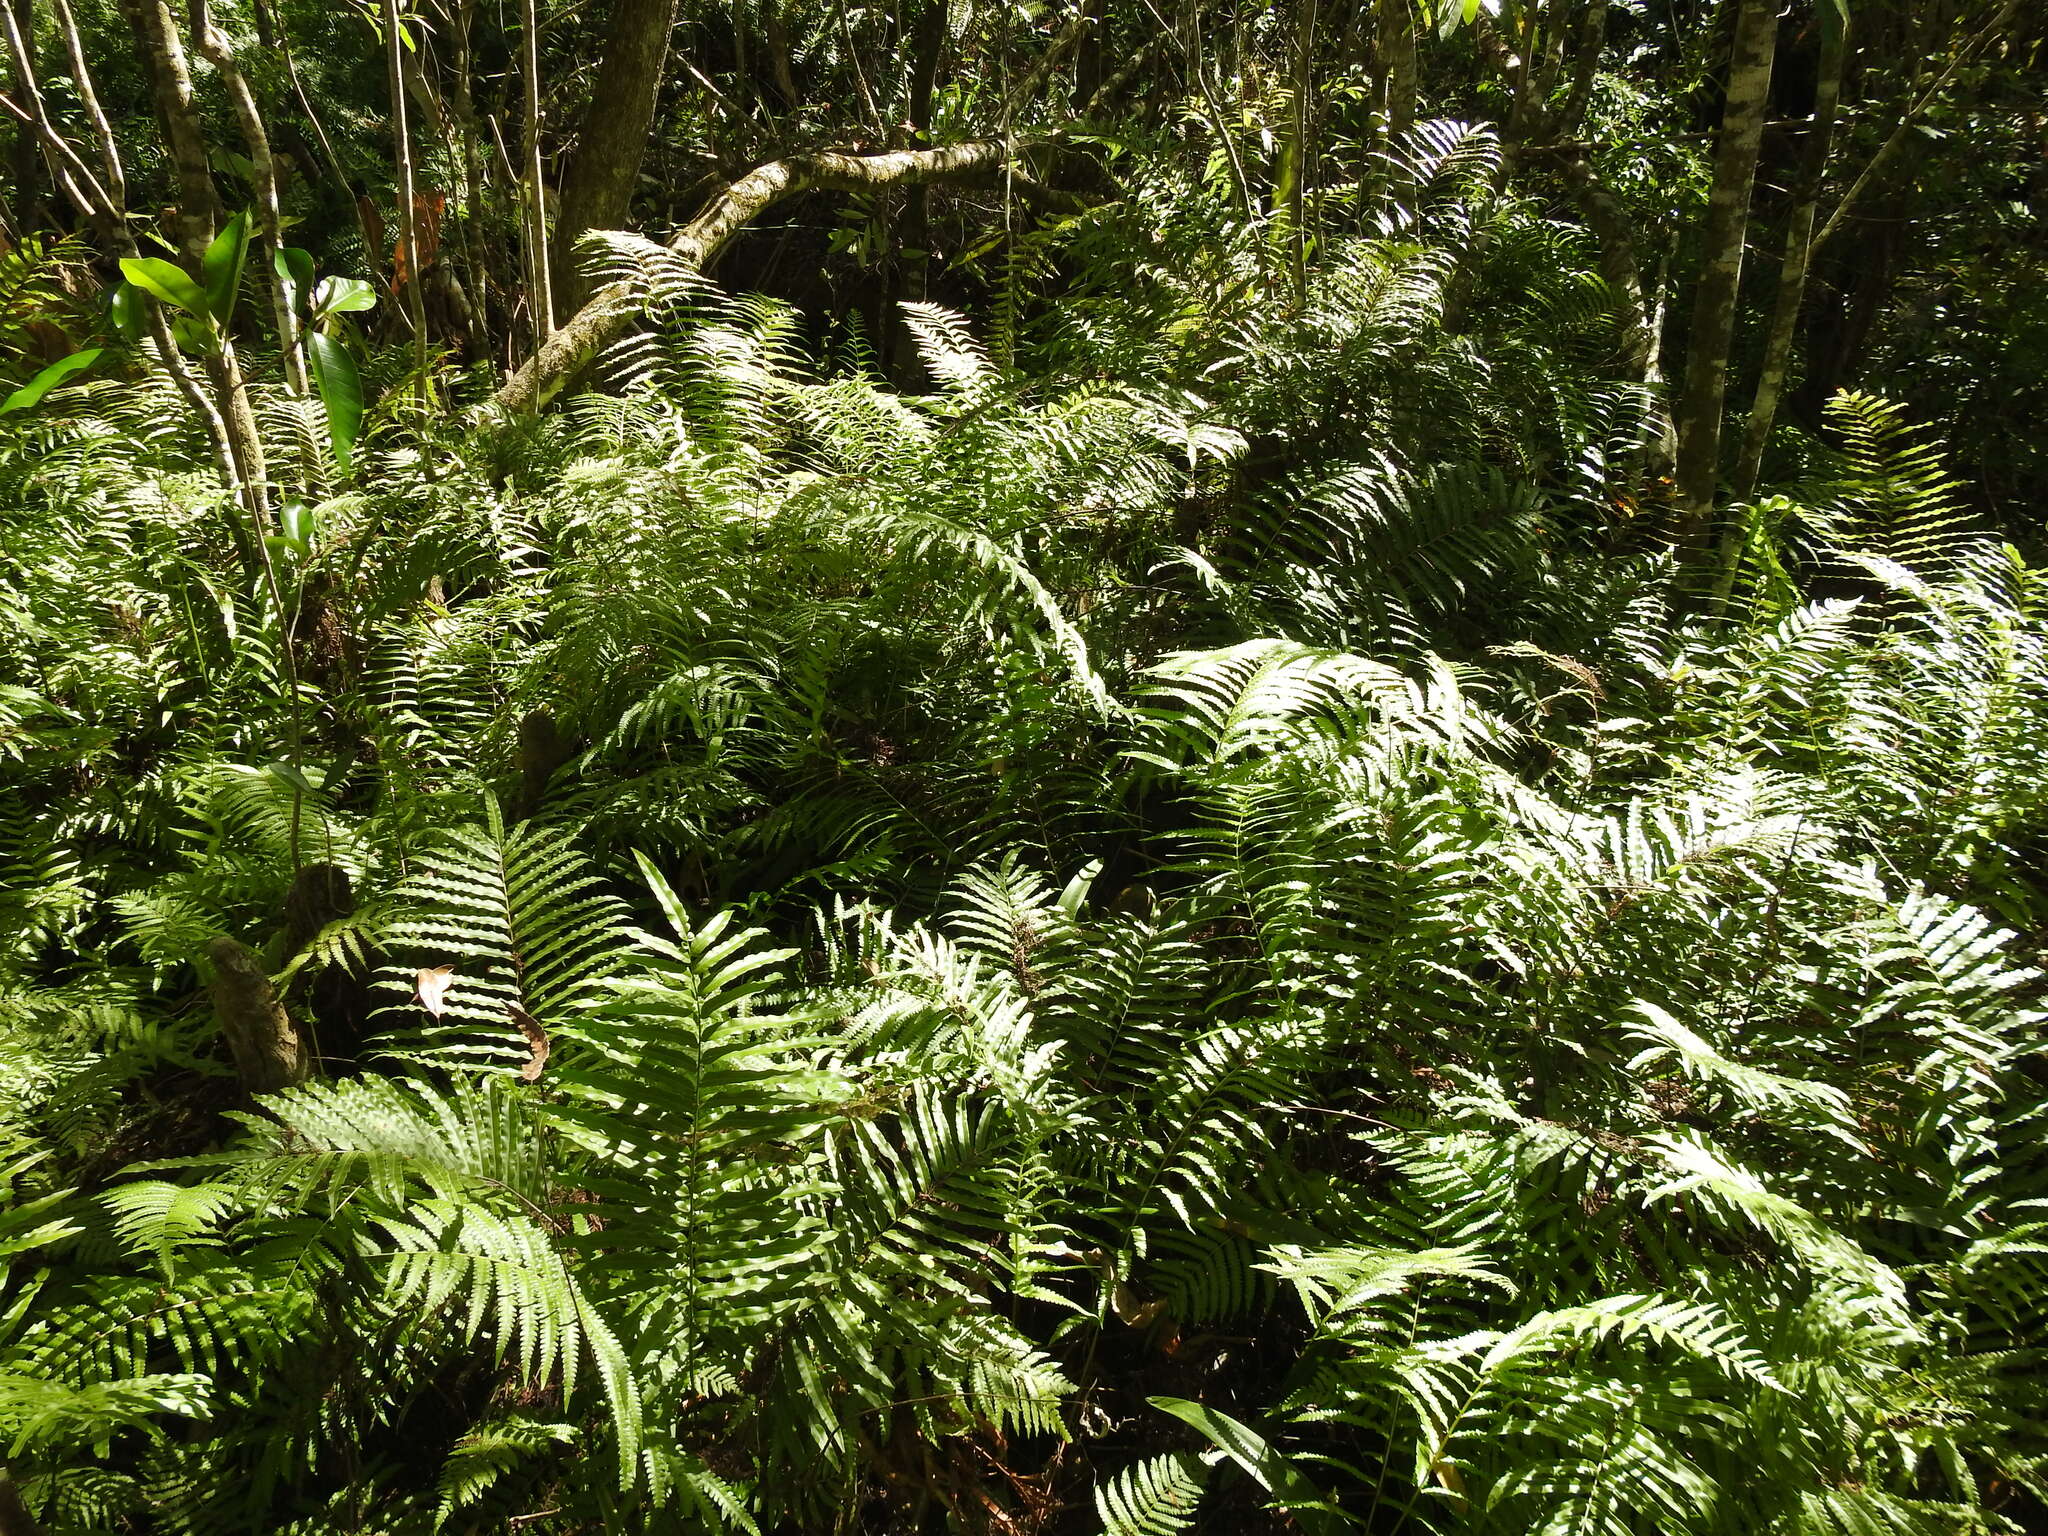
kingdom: Plantae
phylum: Tracheophyta
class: Polypodiopsida
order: Polypodiales
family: Thelypteridaceae
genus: Cyclosorus
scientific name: Cyclosorus interruptus
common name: Neke fern
